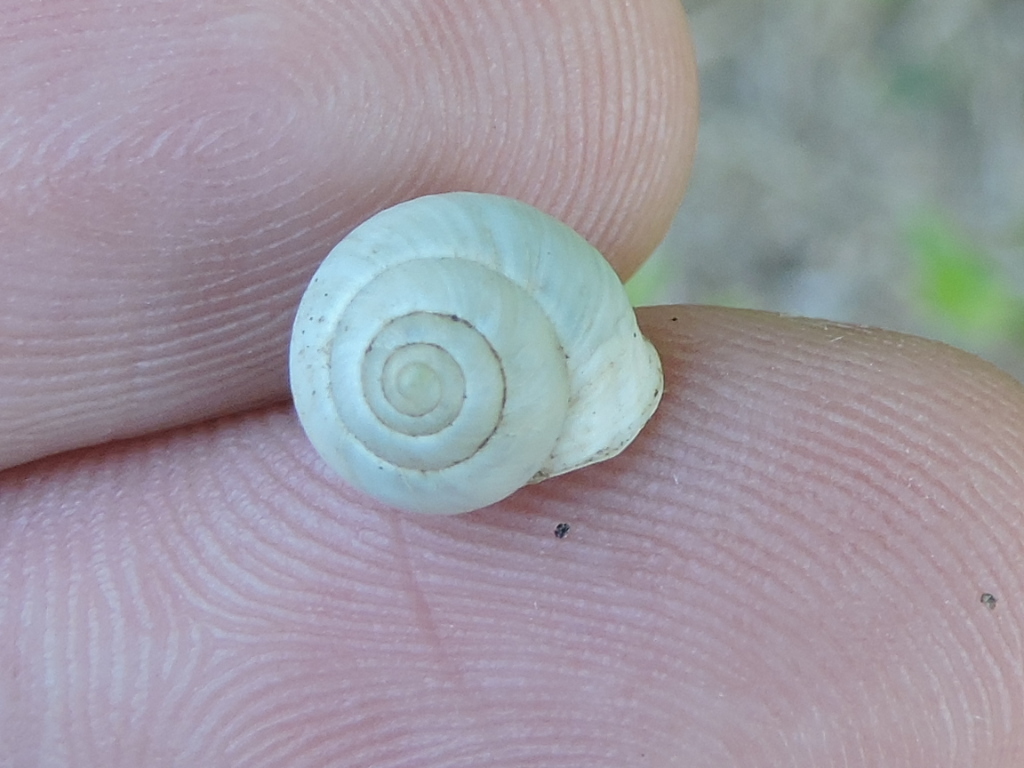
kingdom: Animalia
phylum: Mollusca
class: Gastropoda
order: Cycloneritida
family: Helicinidae
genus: Helicina
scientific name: Helicina orbiculata
